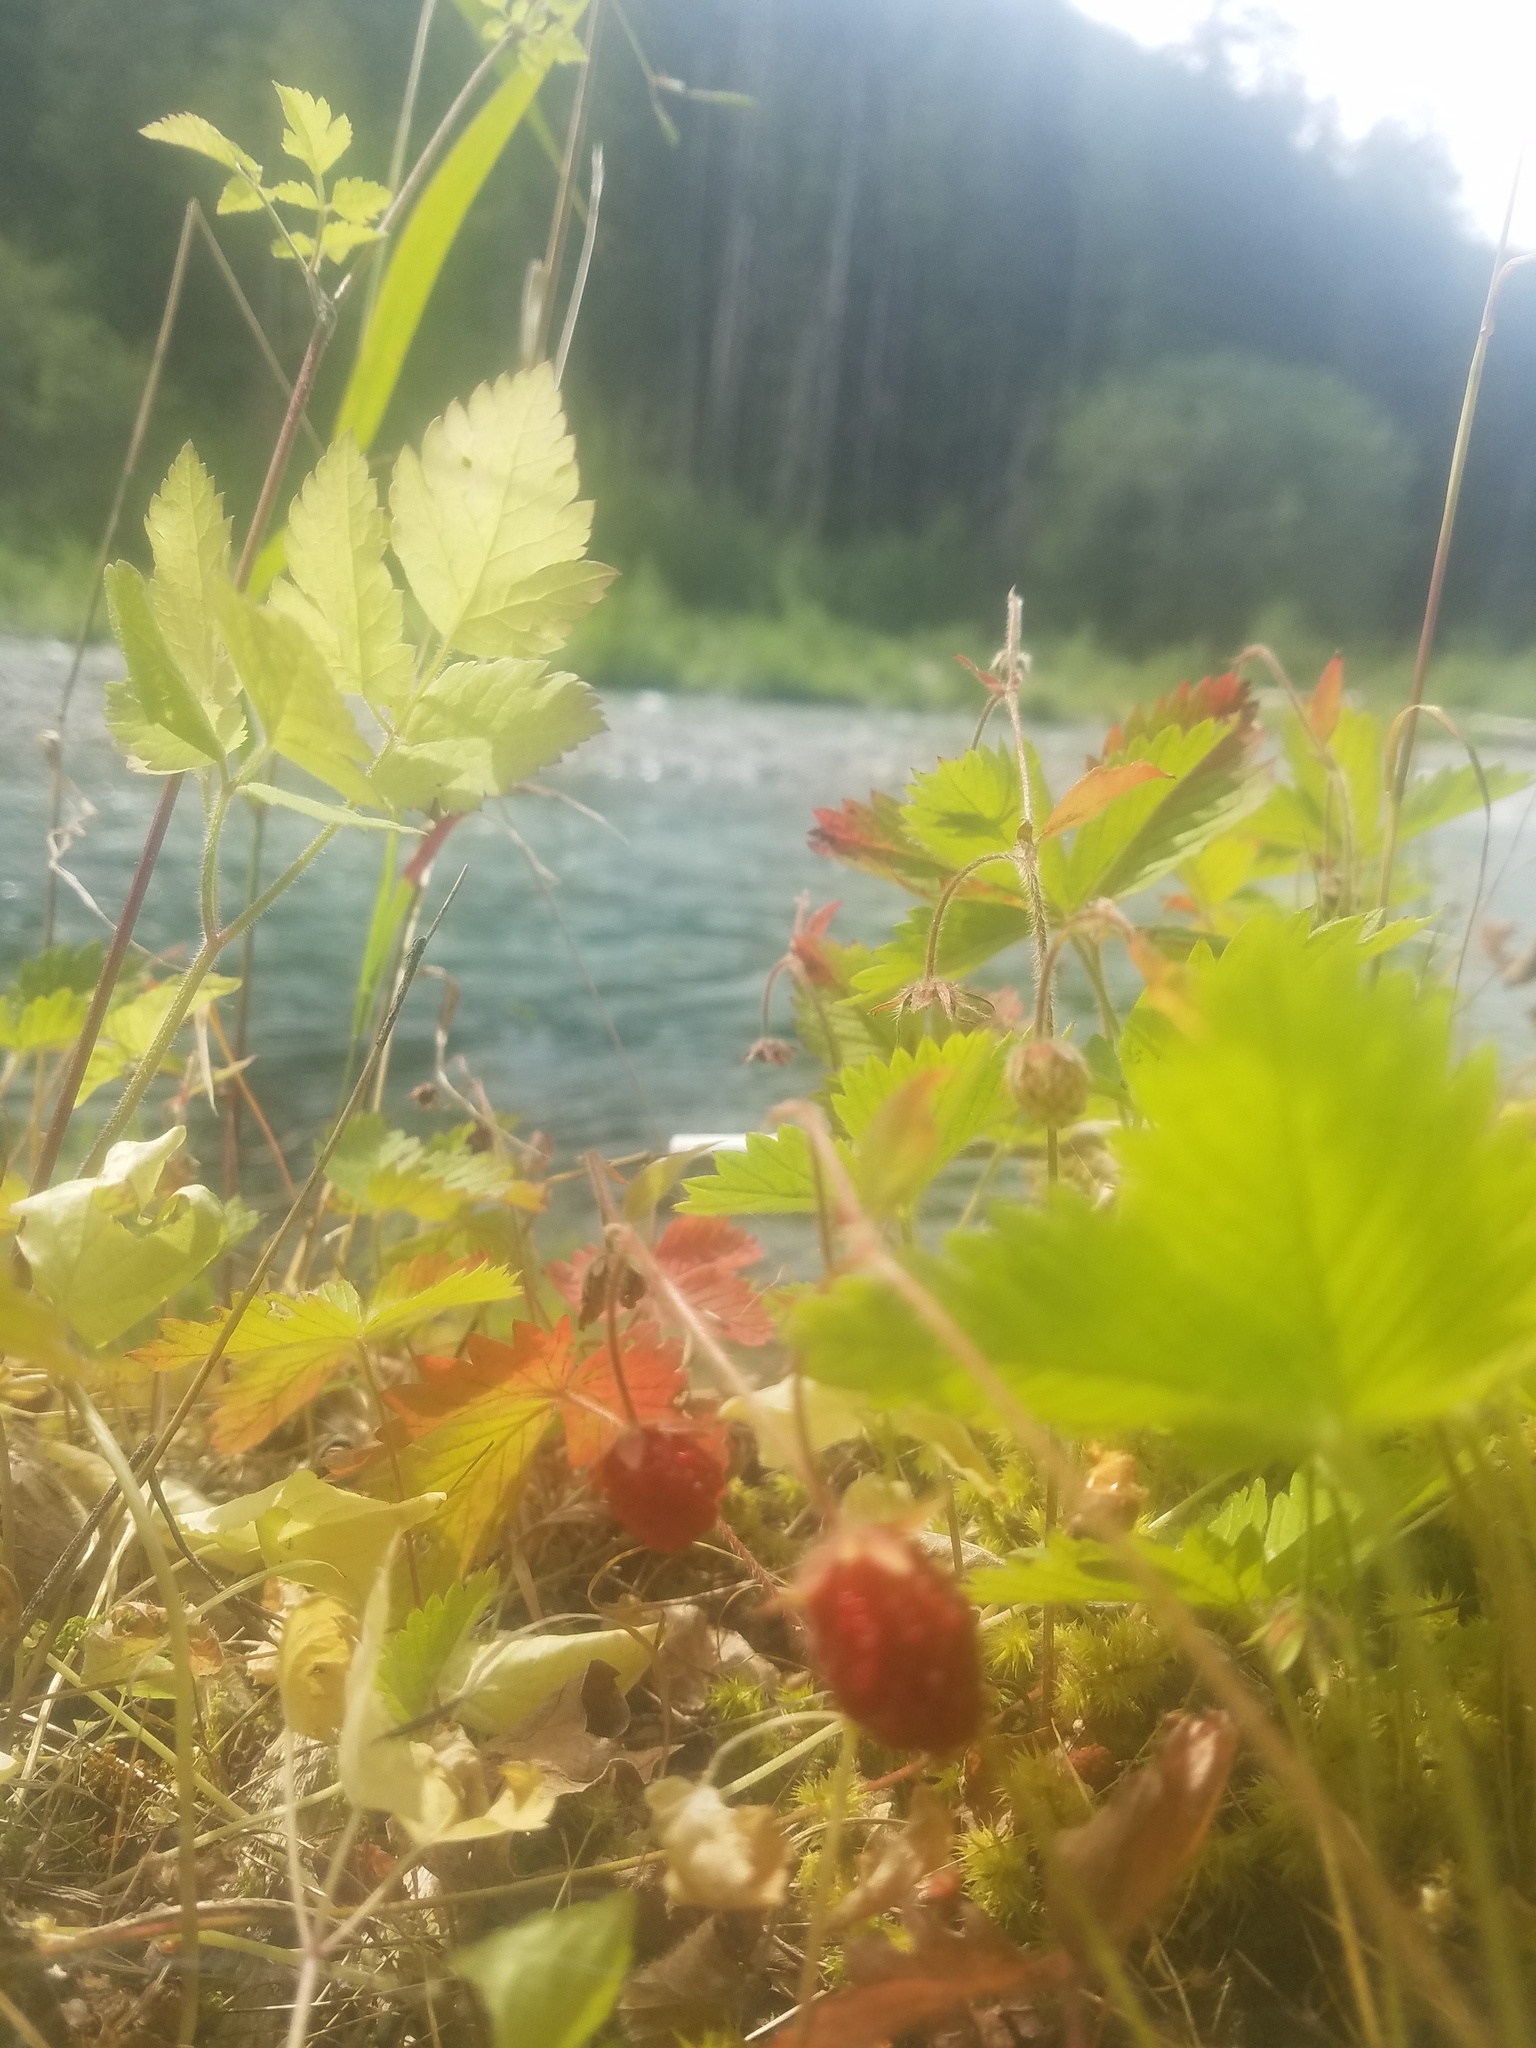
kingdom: Plantae
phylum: Tracheophyta
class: Magnoliopsida
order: Rosales
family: Rosaceae
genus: Fragaria
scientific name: Fragaria vesca
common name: Wild strawberry
